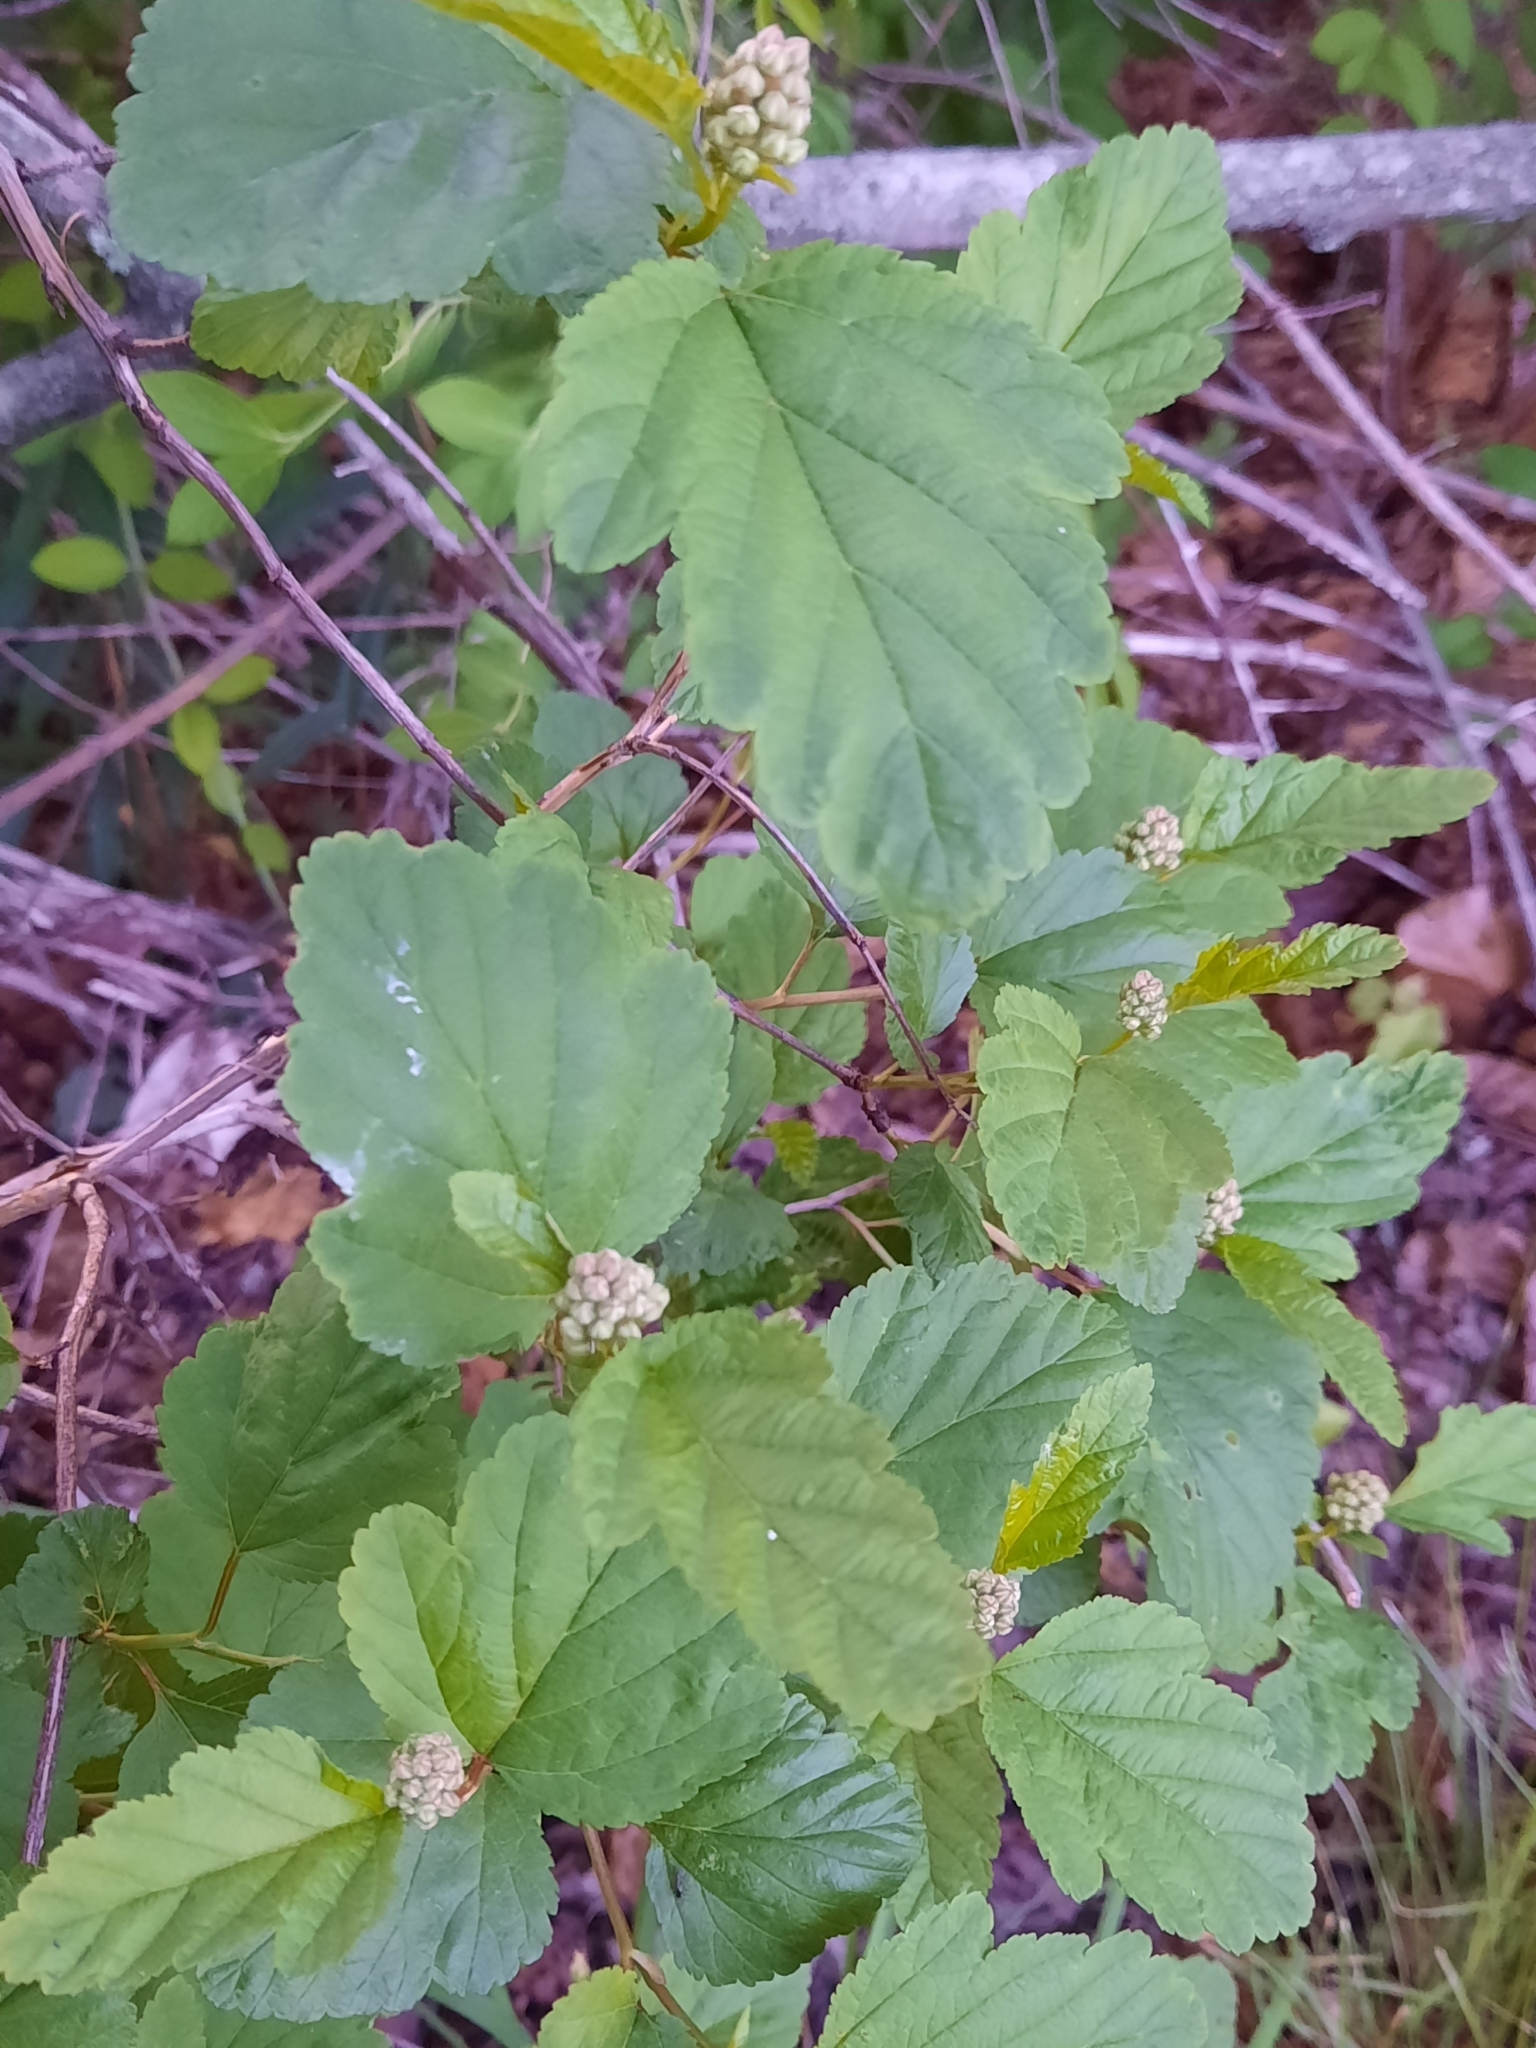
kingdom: Plantae
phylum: Tracheophyta
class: Magnoliopsida
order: Rosales
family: Rosaceae
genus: Physocarpus
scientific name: Physocarpus opulifolius
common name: Ninebark
